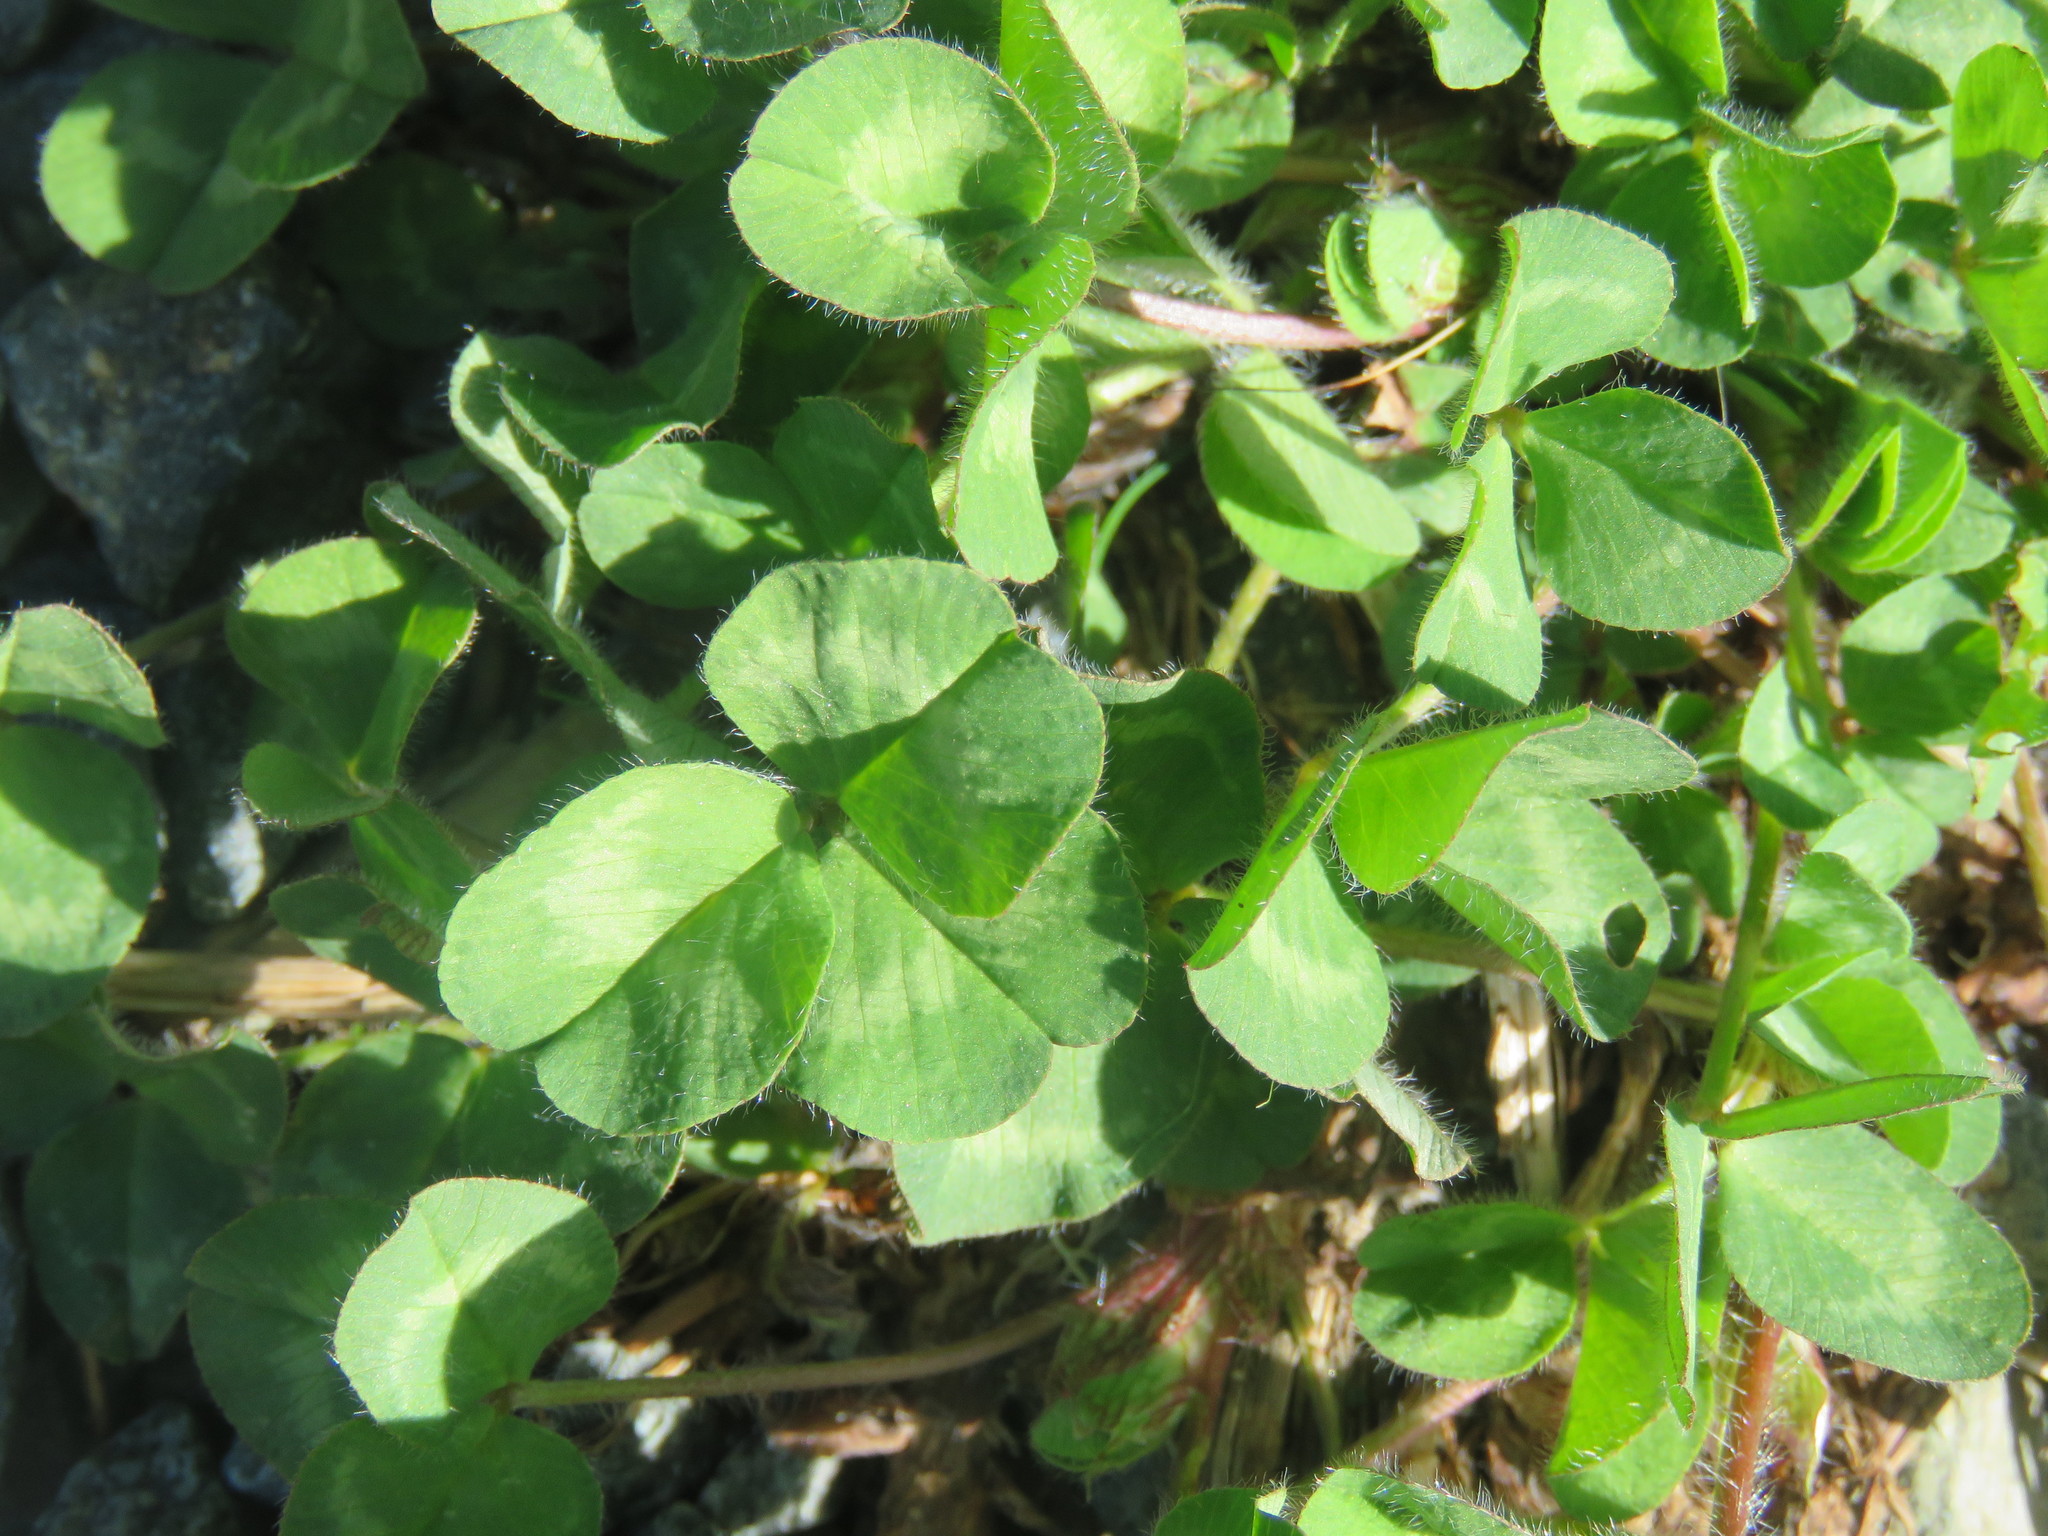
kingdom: Plantae
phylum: Tracheophyta
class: Magnoliopsida
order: Fabales
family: Fabaceae
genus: Trifolium
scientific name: Trifolium pratense
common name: Red clover
